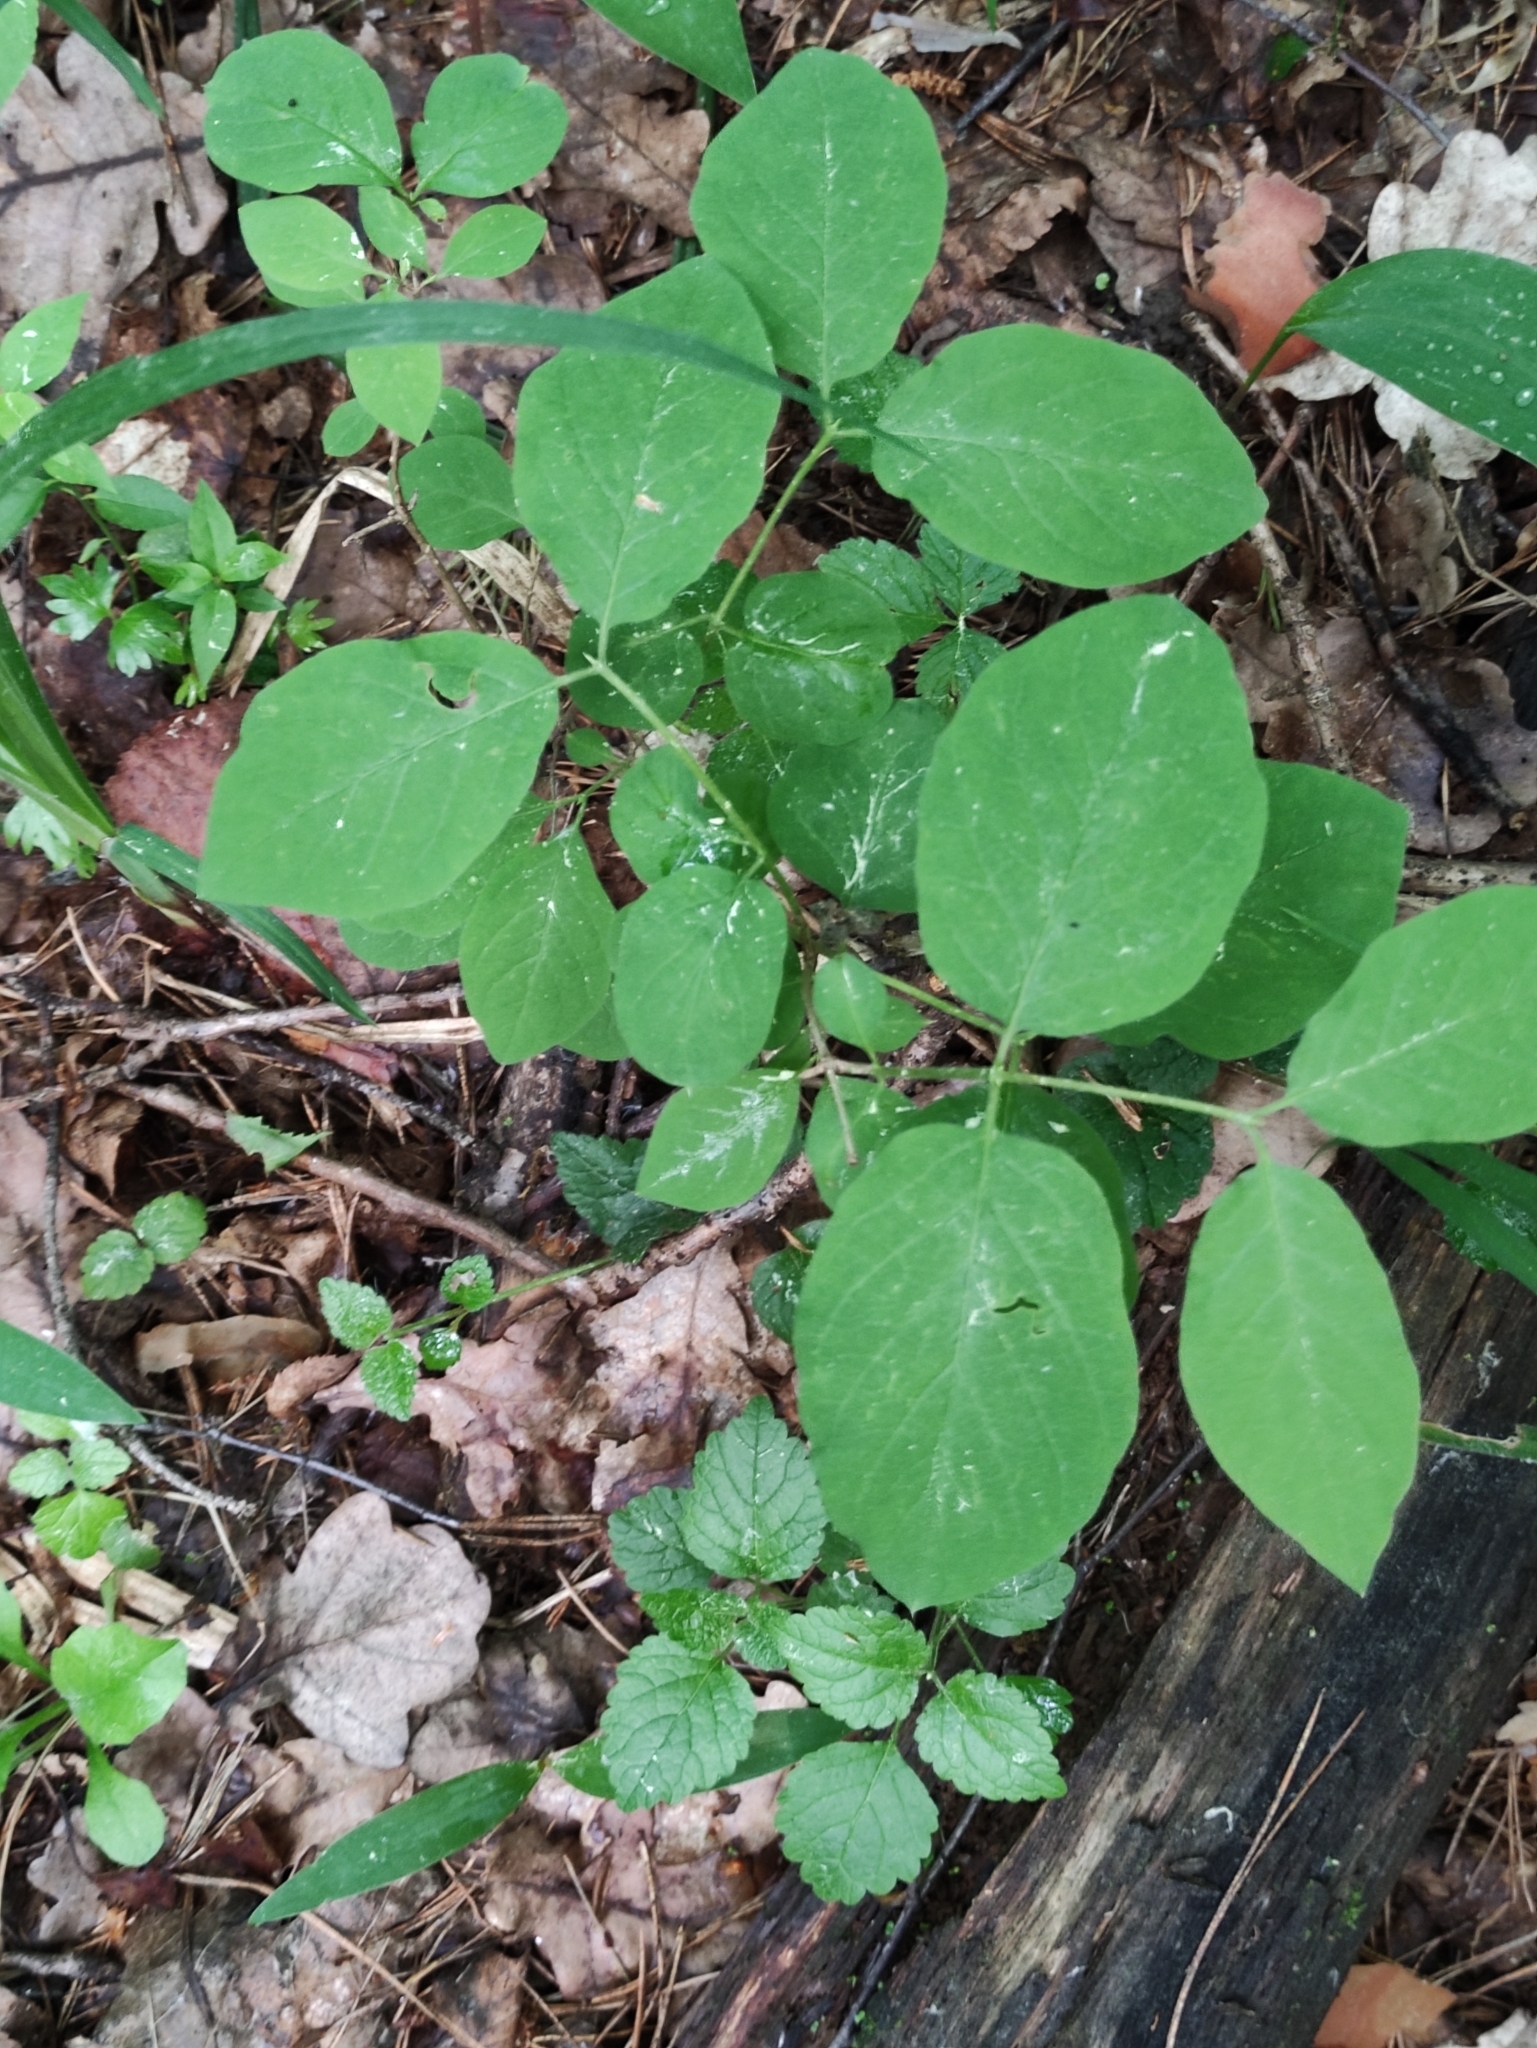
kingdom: Plantae
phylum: Tracheophyta
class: Magnoliopsida
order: Dipsacales
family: Caprifoliaceae
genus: Lonicera
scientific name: Lonicera xylosteum
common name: Fly honeysuckle
